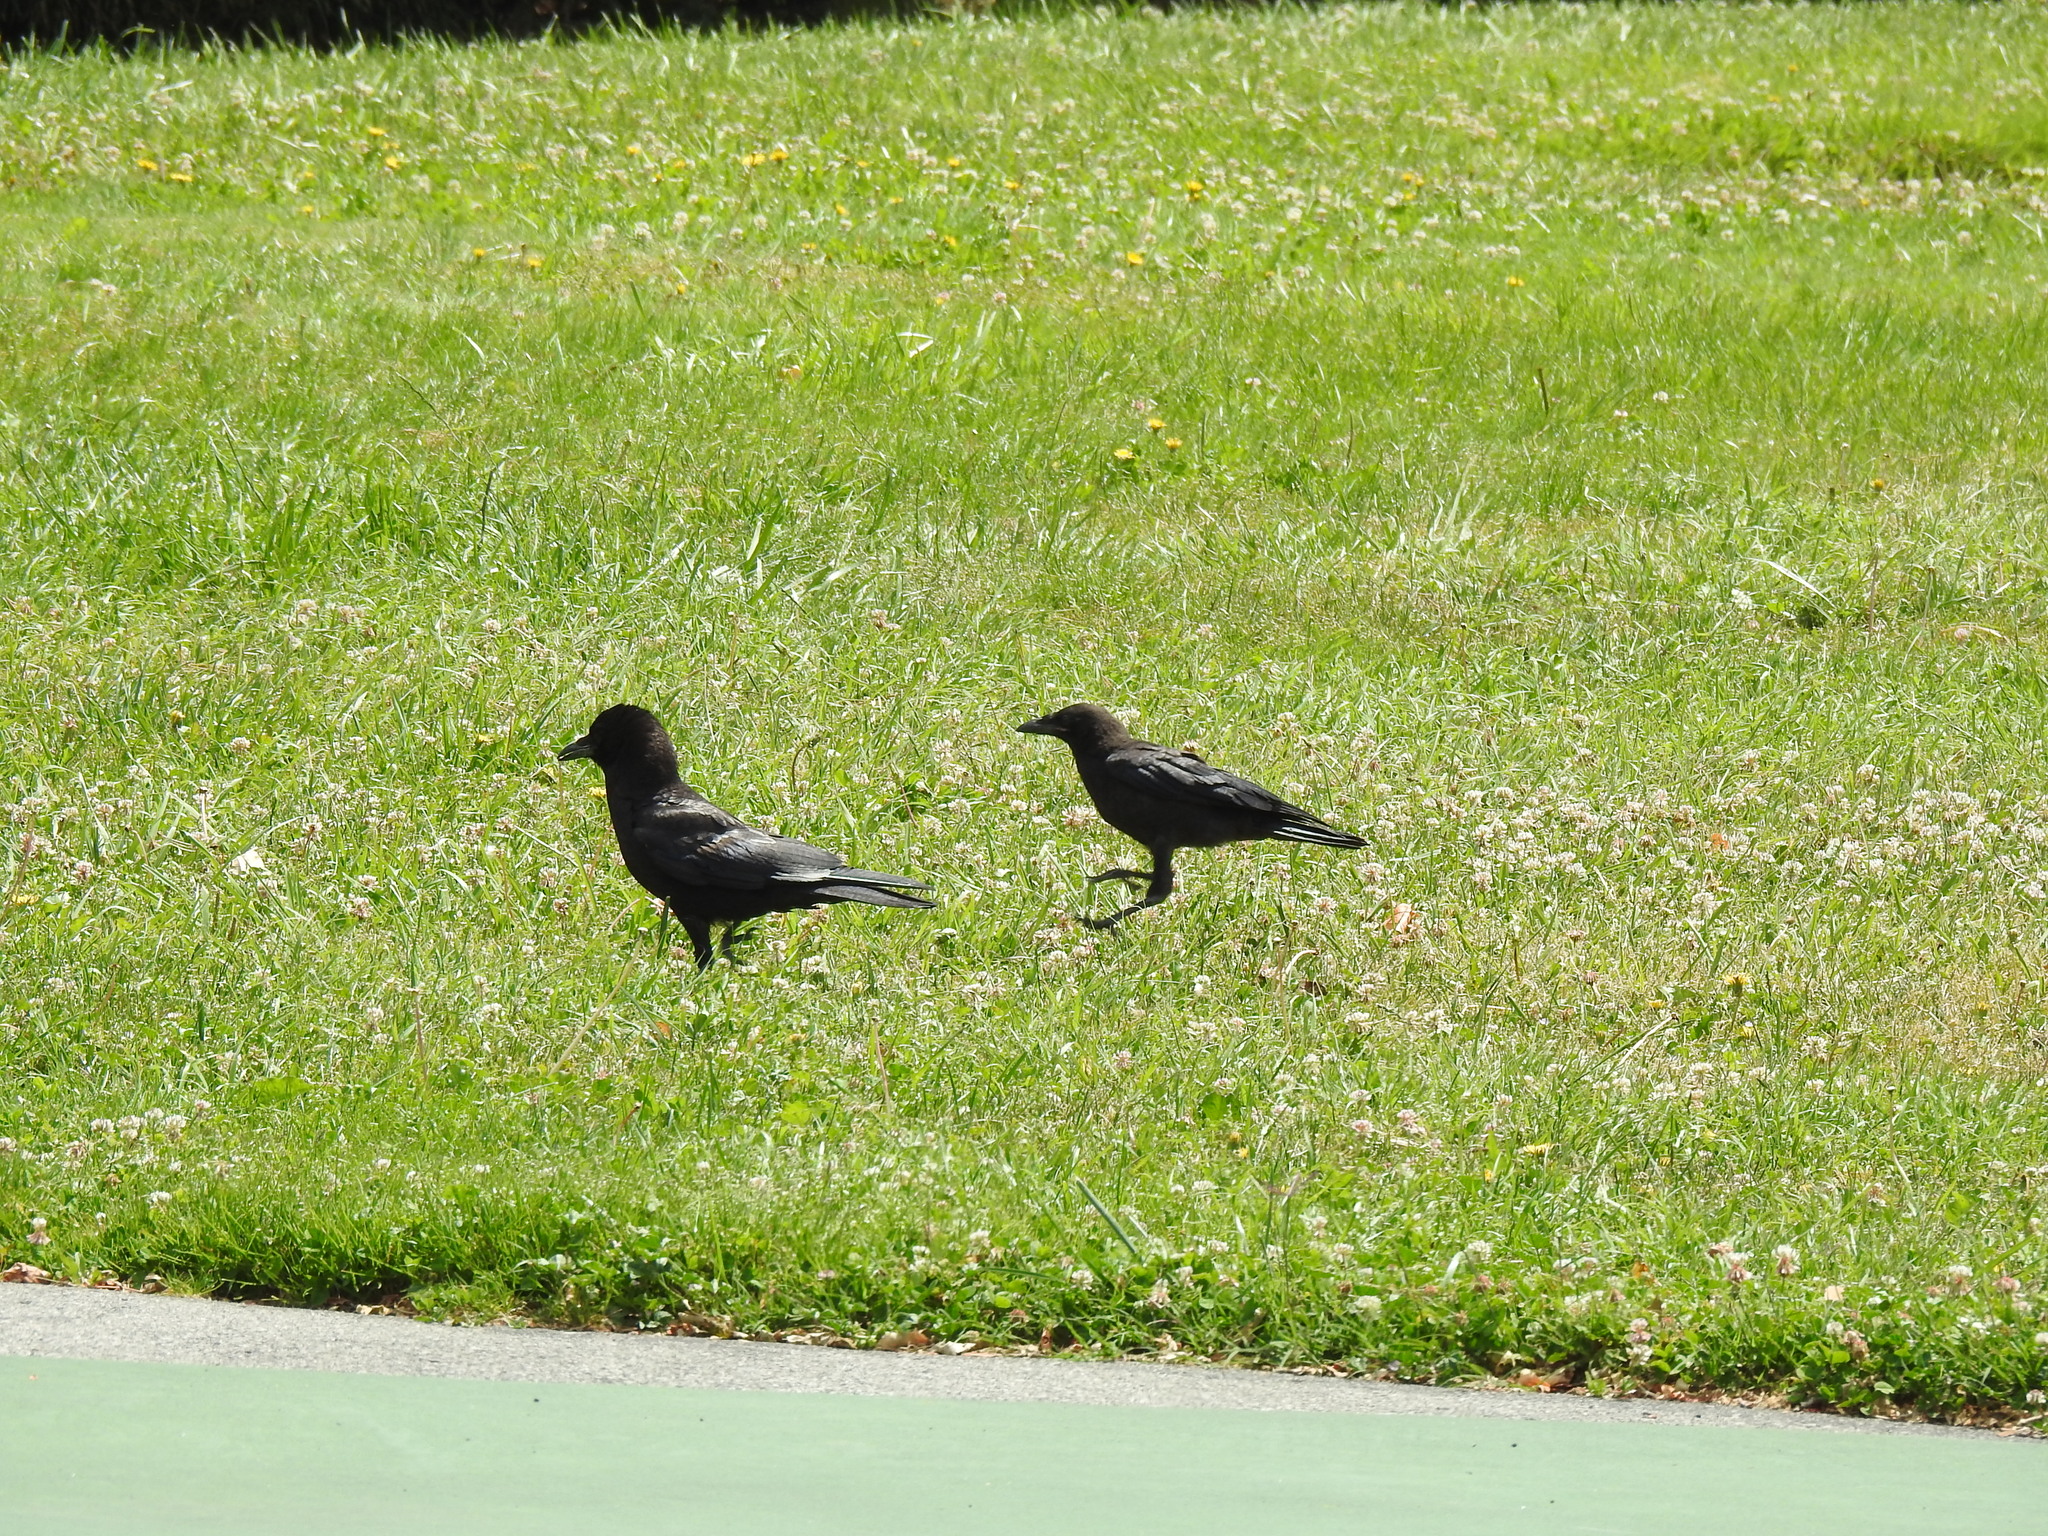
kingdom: Animalia
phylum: Chordata
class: Aves
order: Passeriformes
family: Corvidae
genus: Corvus
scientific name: Corvus brachyrhynchos
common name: American crow
